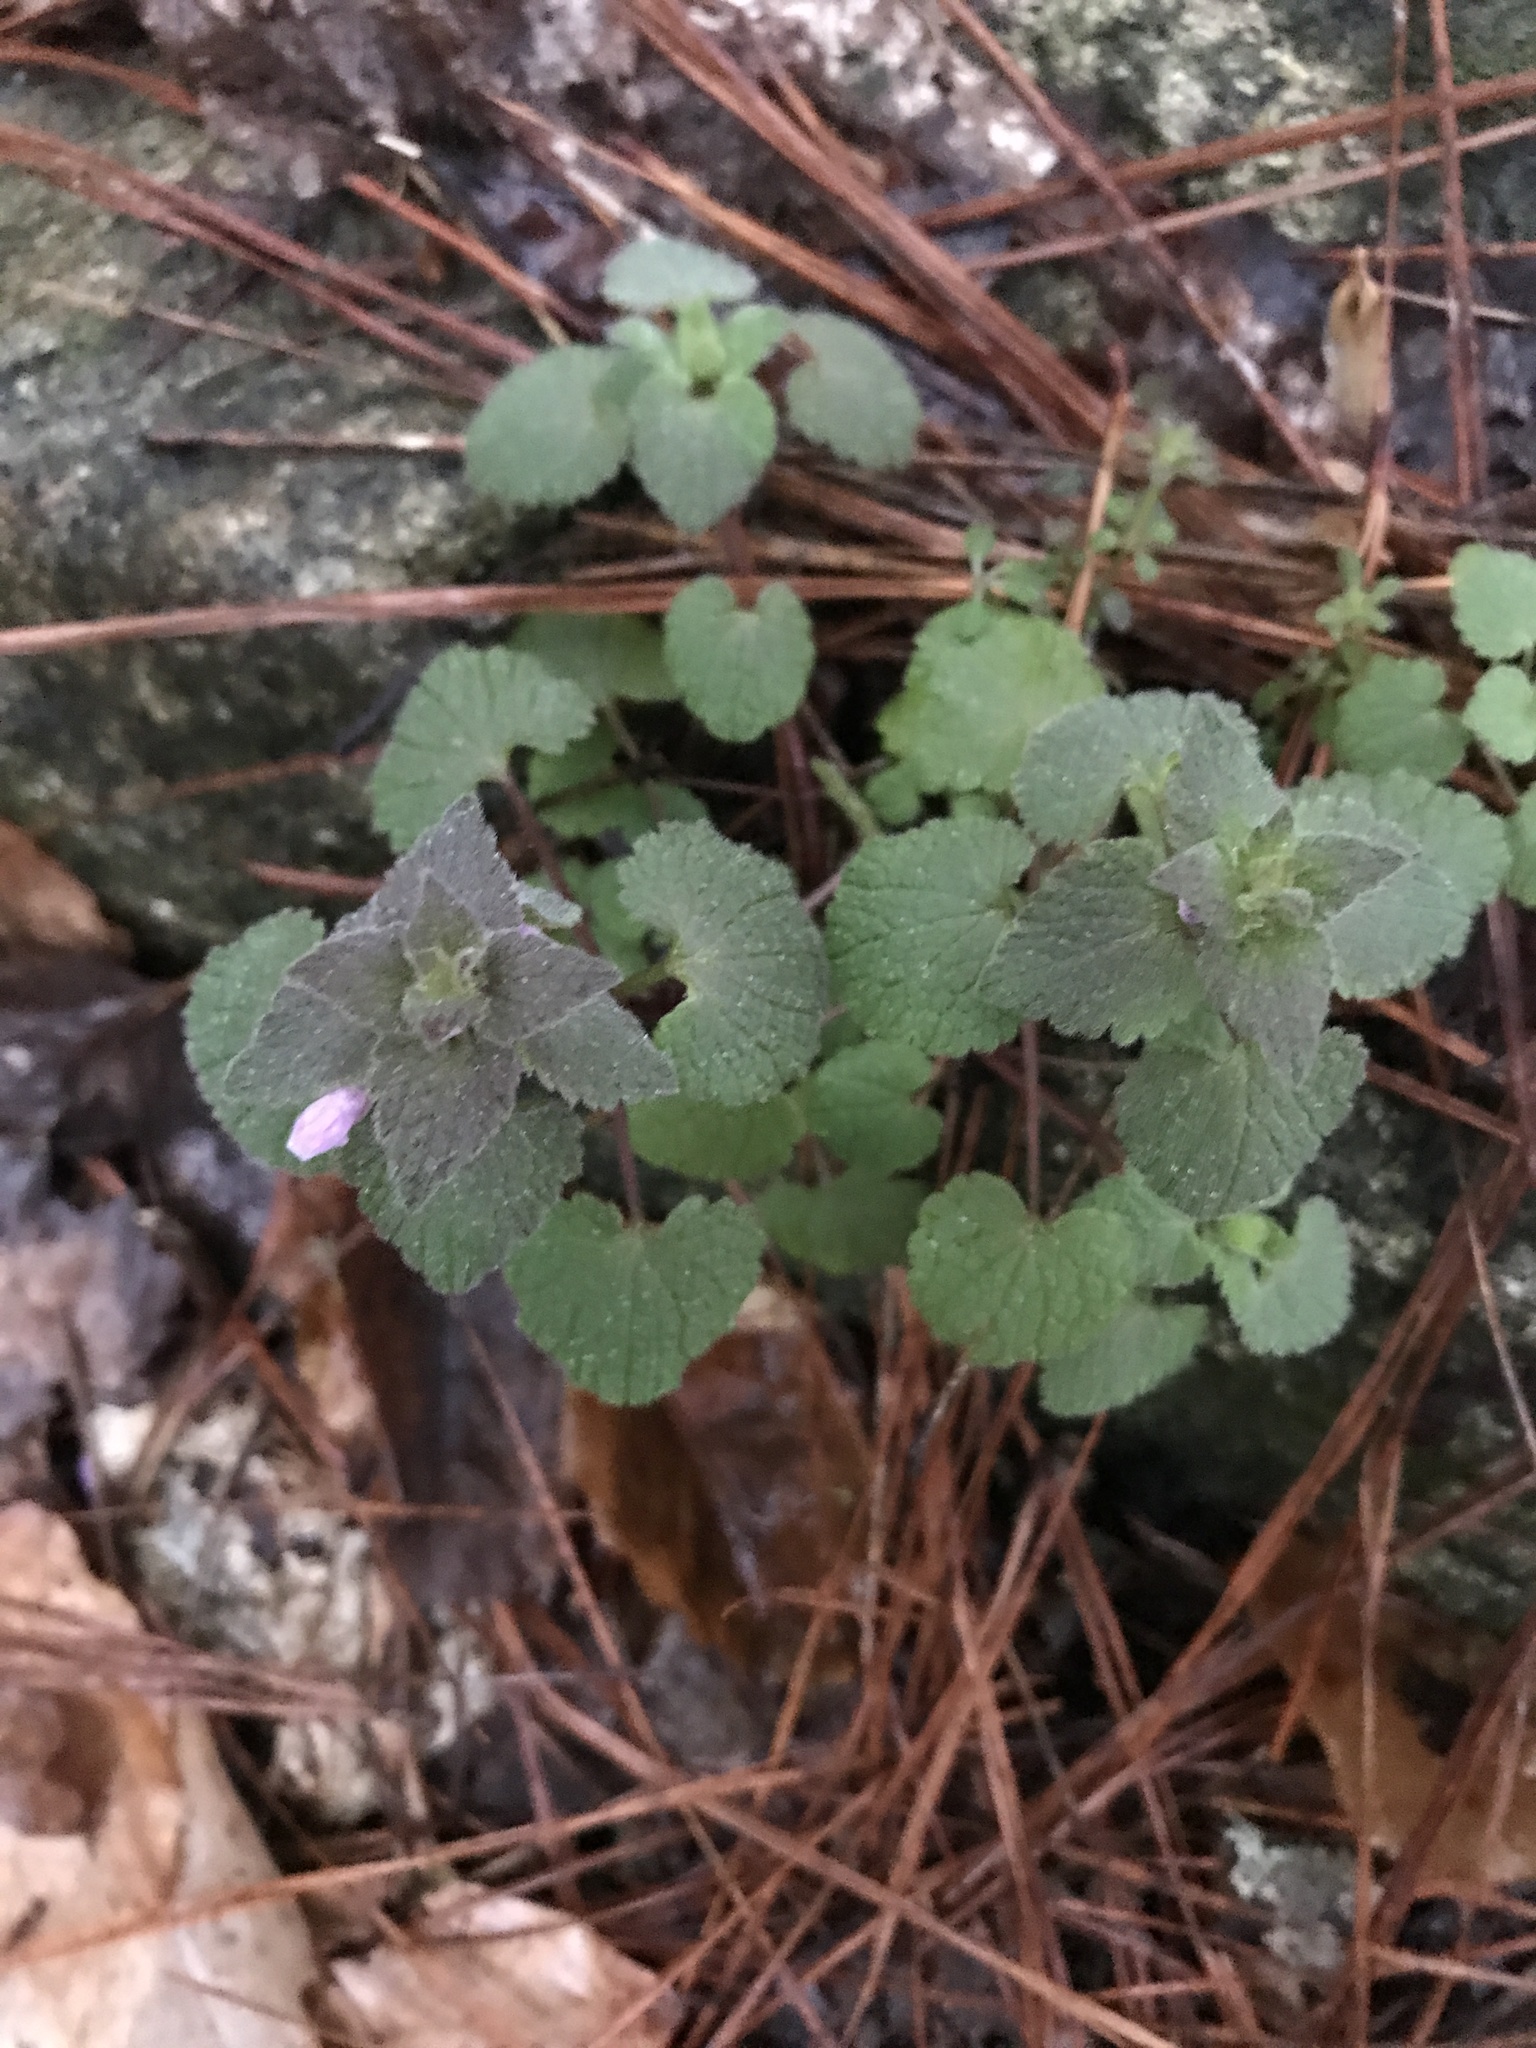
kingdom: Plantae
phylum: Tracheophyta
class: Magnoliopsida
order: Lamiales
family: Lamiaceae
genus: Lamium
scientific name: Lamium purpureum
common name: Red dead-nettle
